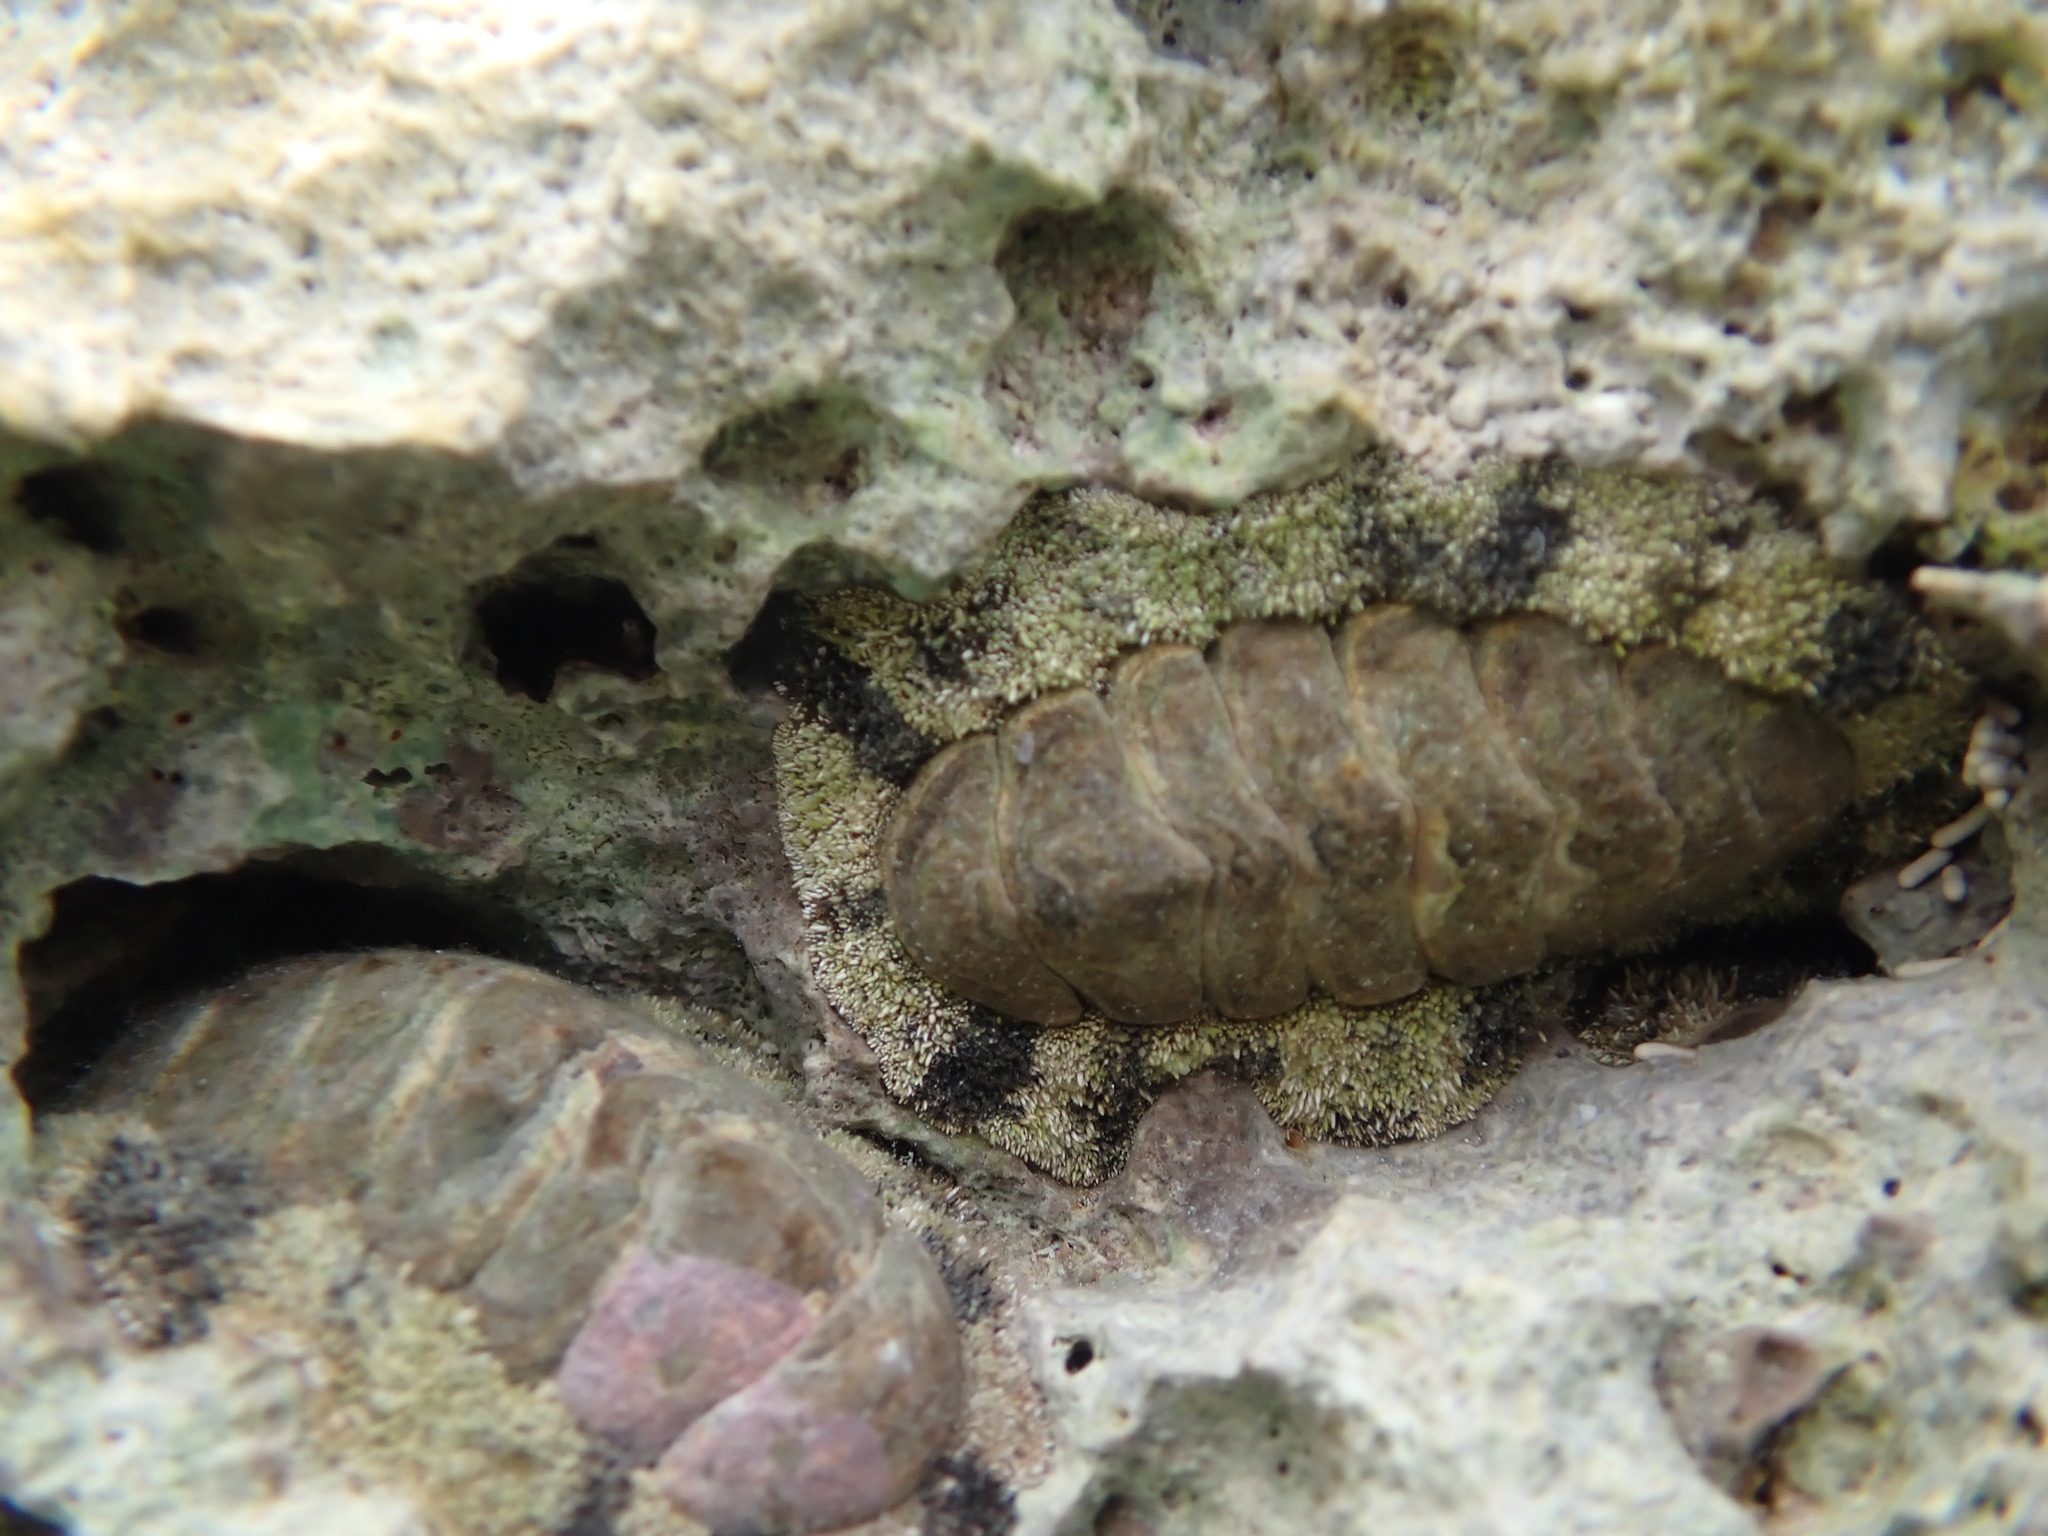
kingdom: Animalia
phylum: Mollusca
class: Polyplacophora
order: Chitonida
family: Chitonidae
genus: Acanthopleura
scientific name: Acanthopleura granulata
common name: West indian fuzzy chiton
